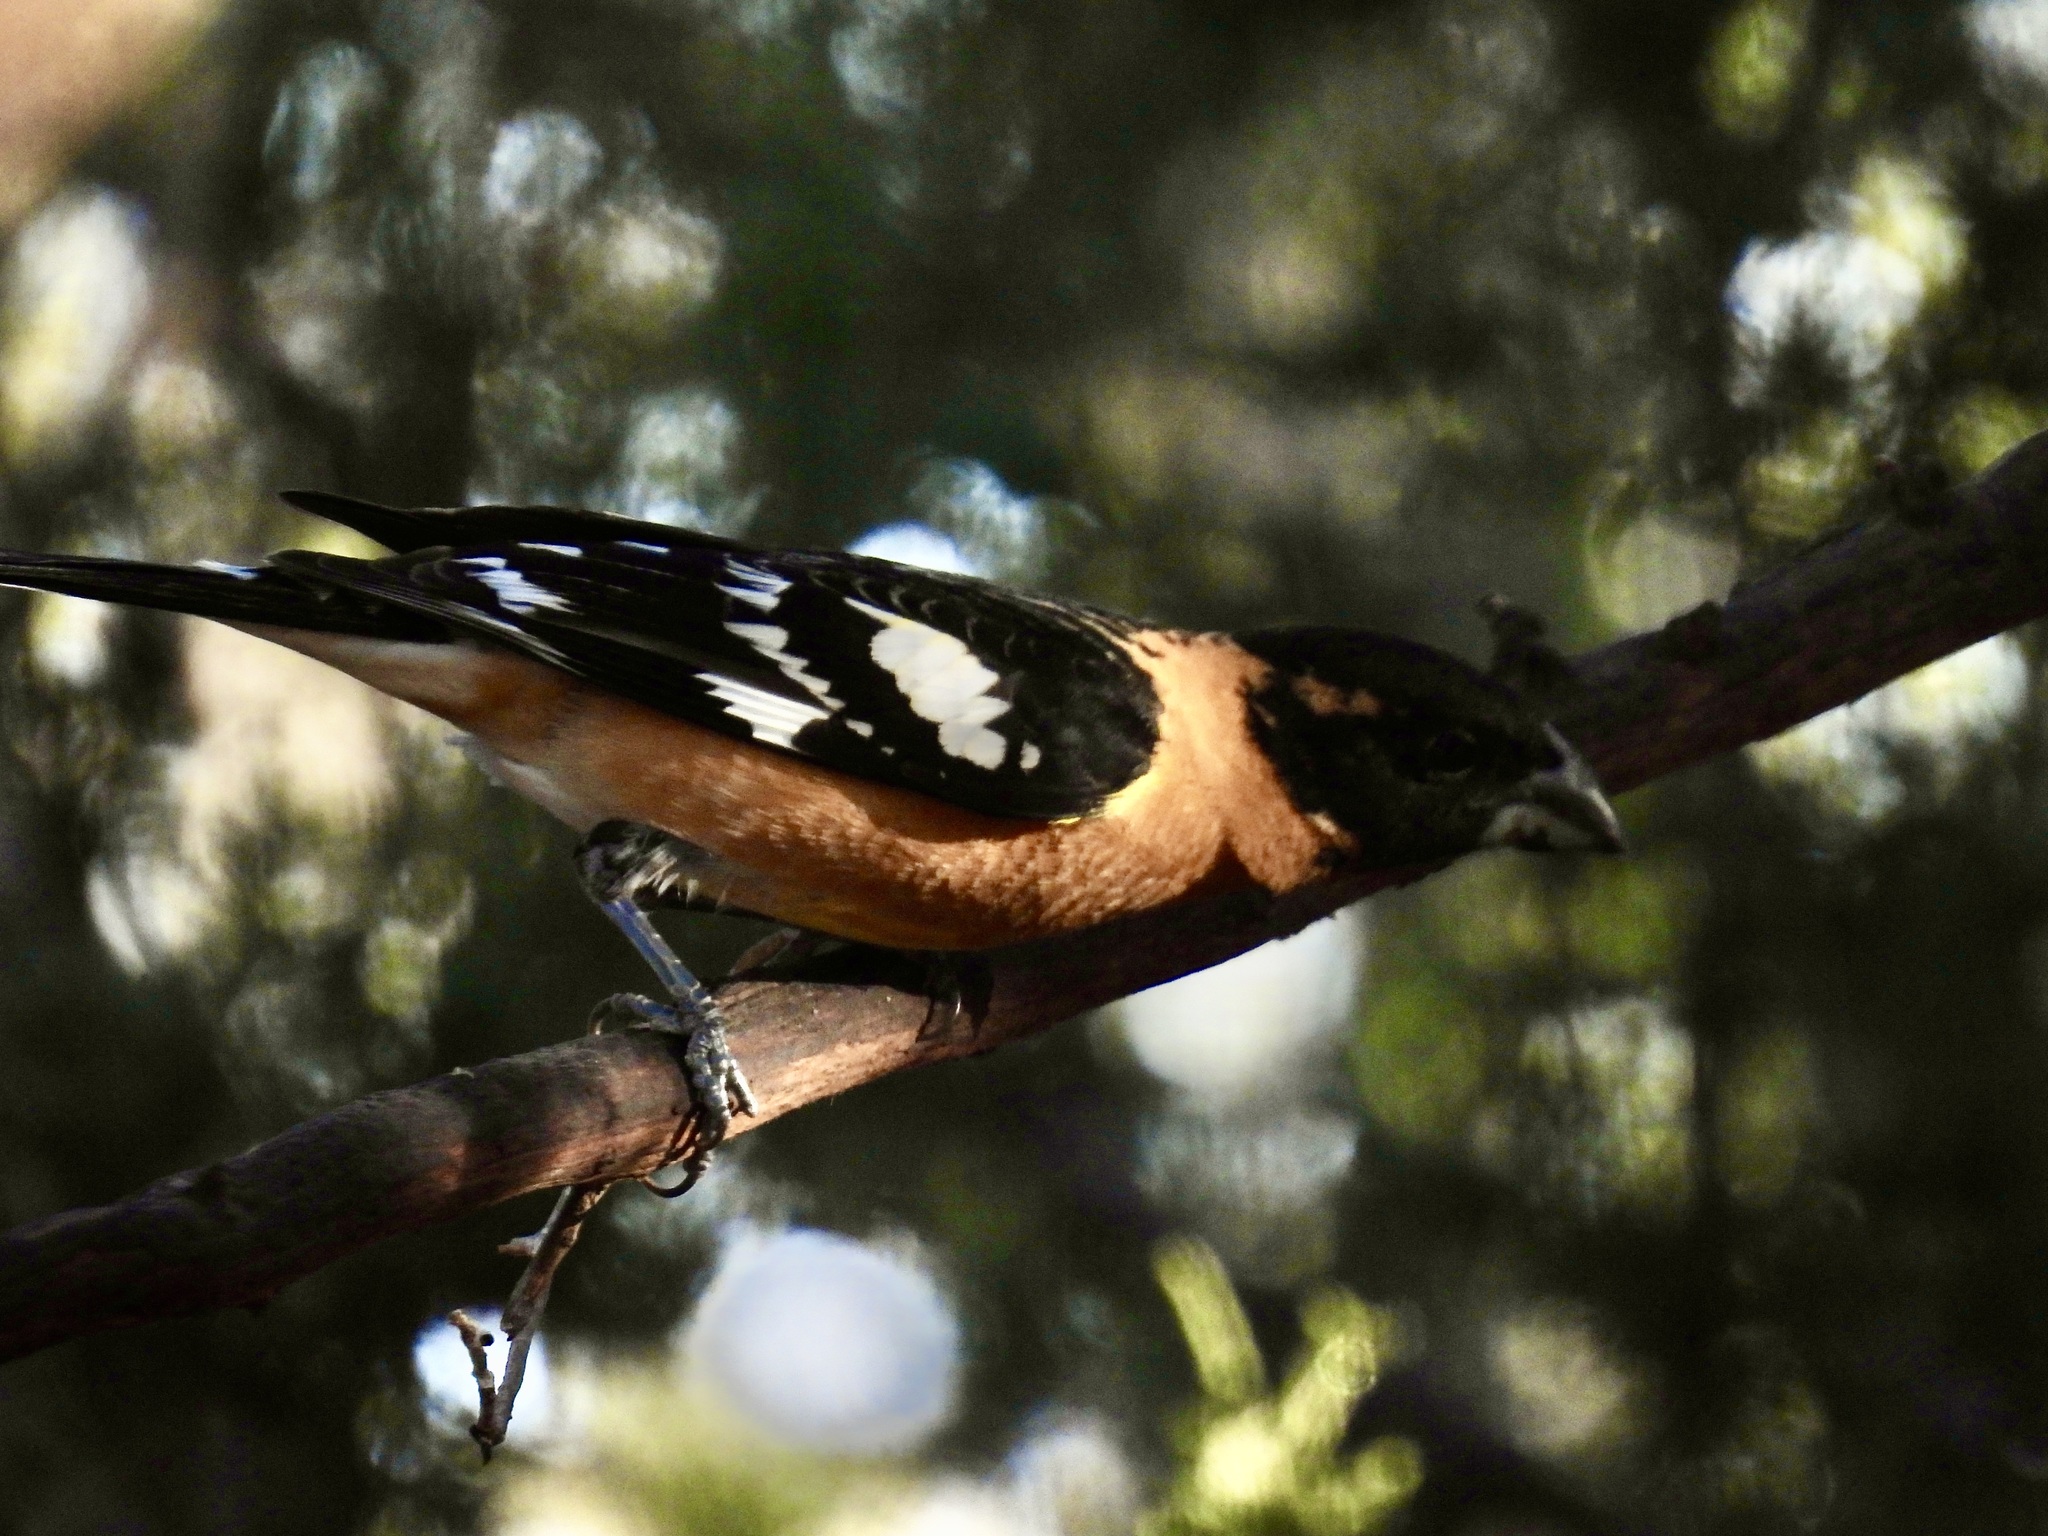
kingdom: Animalia
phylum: Chordata
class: Aves
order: Passeriformes
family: Cardinalidae
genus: Pheucticus
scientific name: Pheucticus melanocephalus
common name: Black-headed grosbeak
